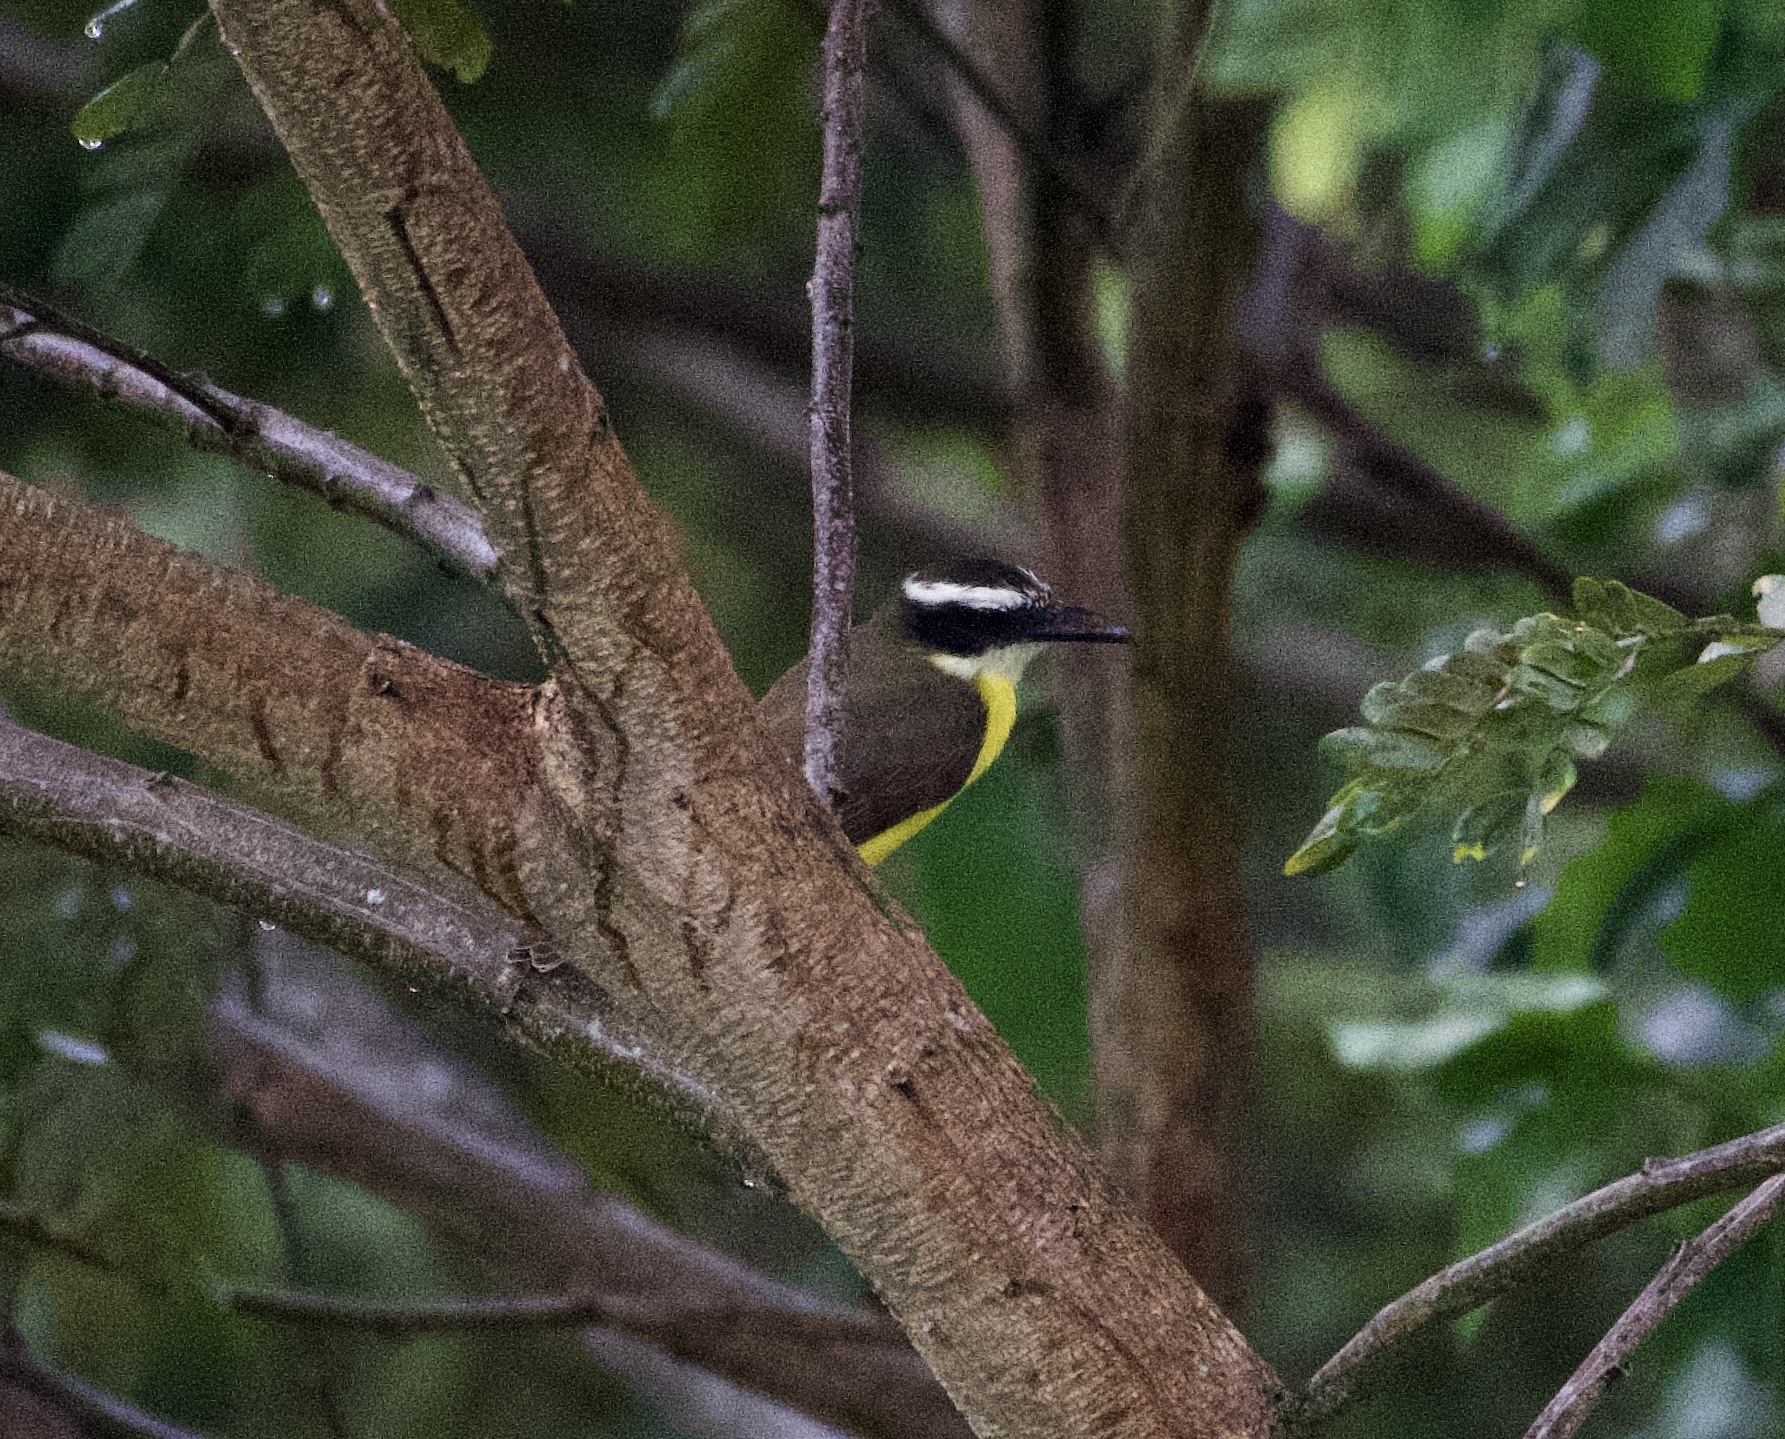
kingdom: Animalia
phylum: Chordata
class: Aves
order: Passeriformes
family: Tyrannidae
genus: Megarynchus
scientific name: Megarynchus pitangua
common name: Boat-billed flycatcher
